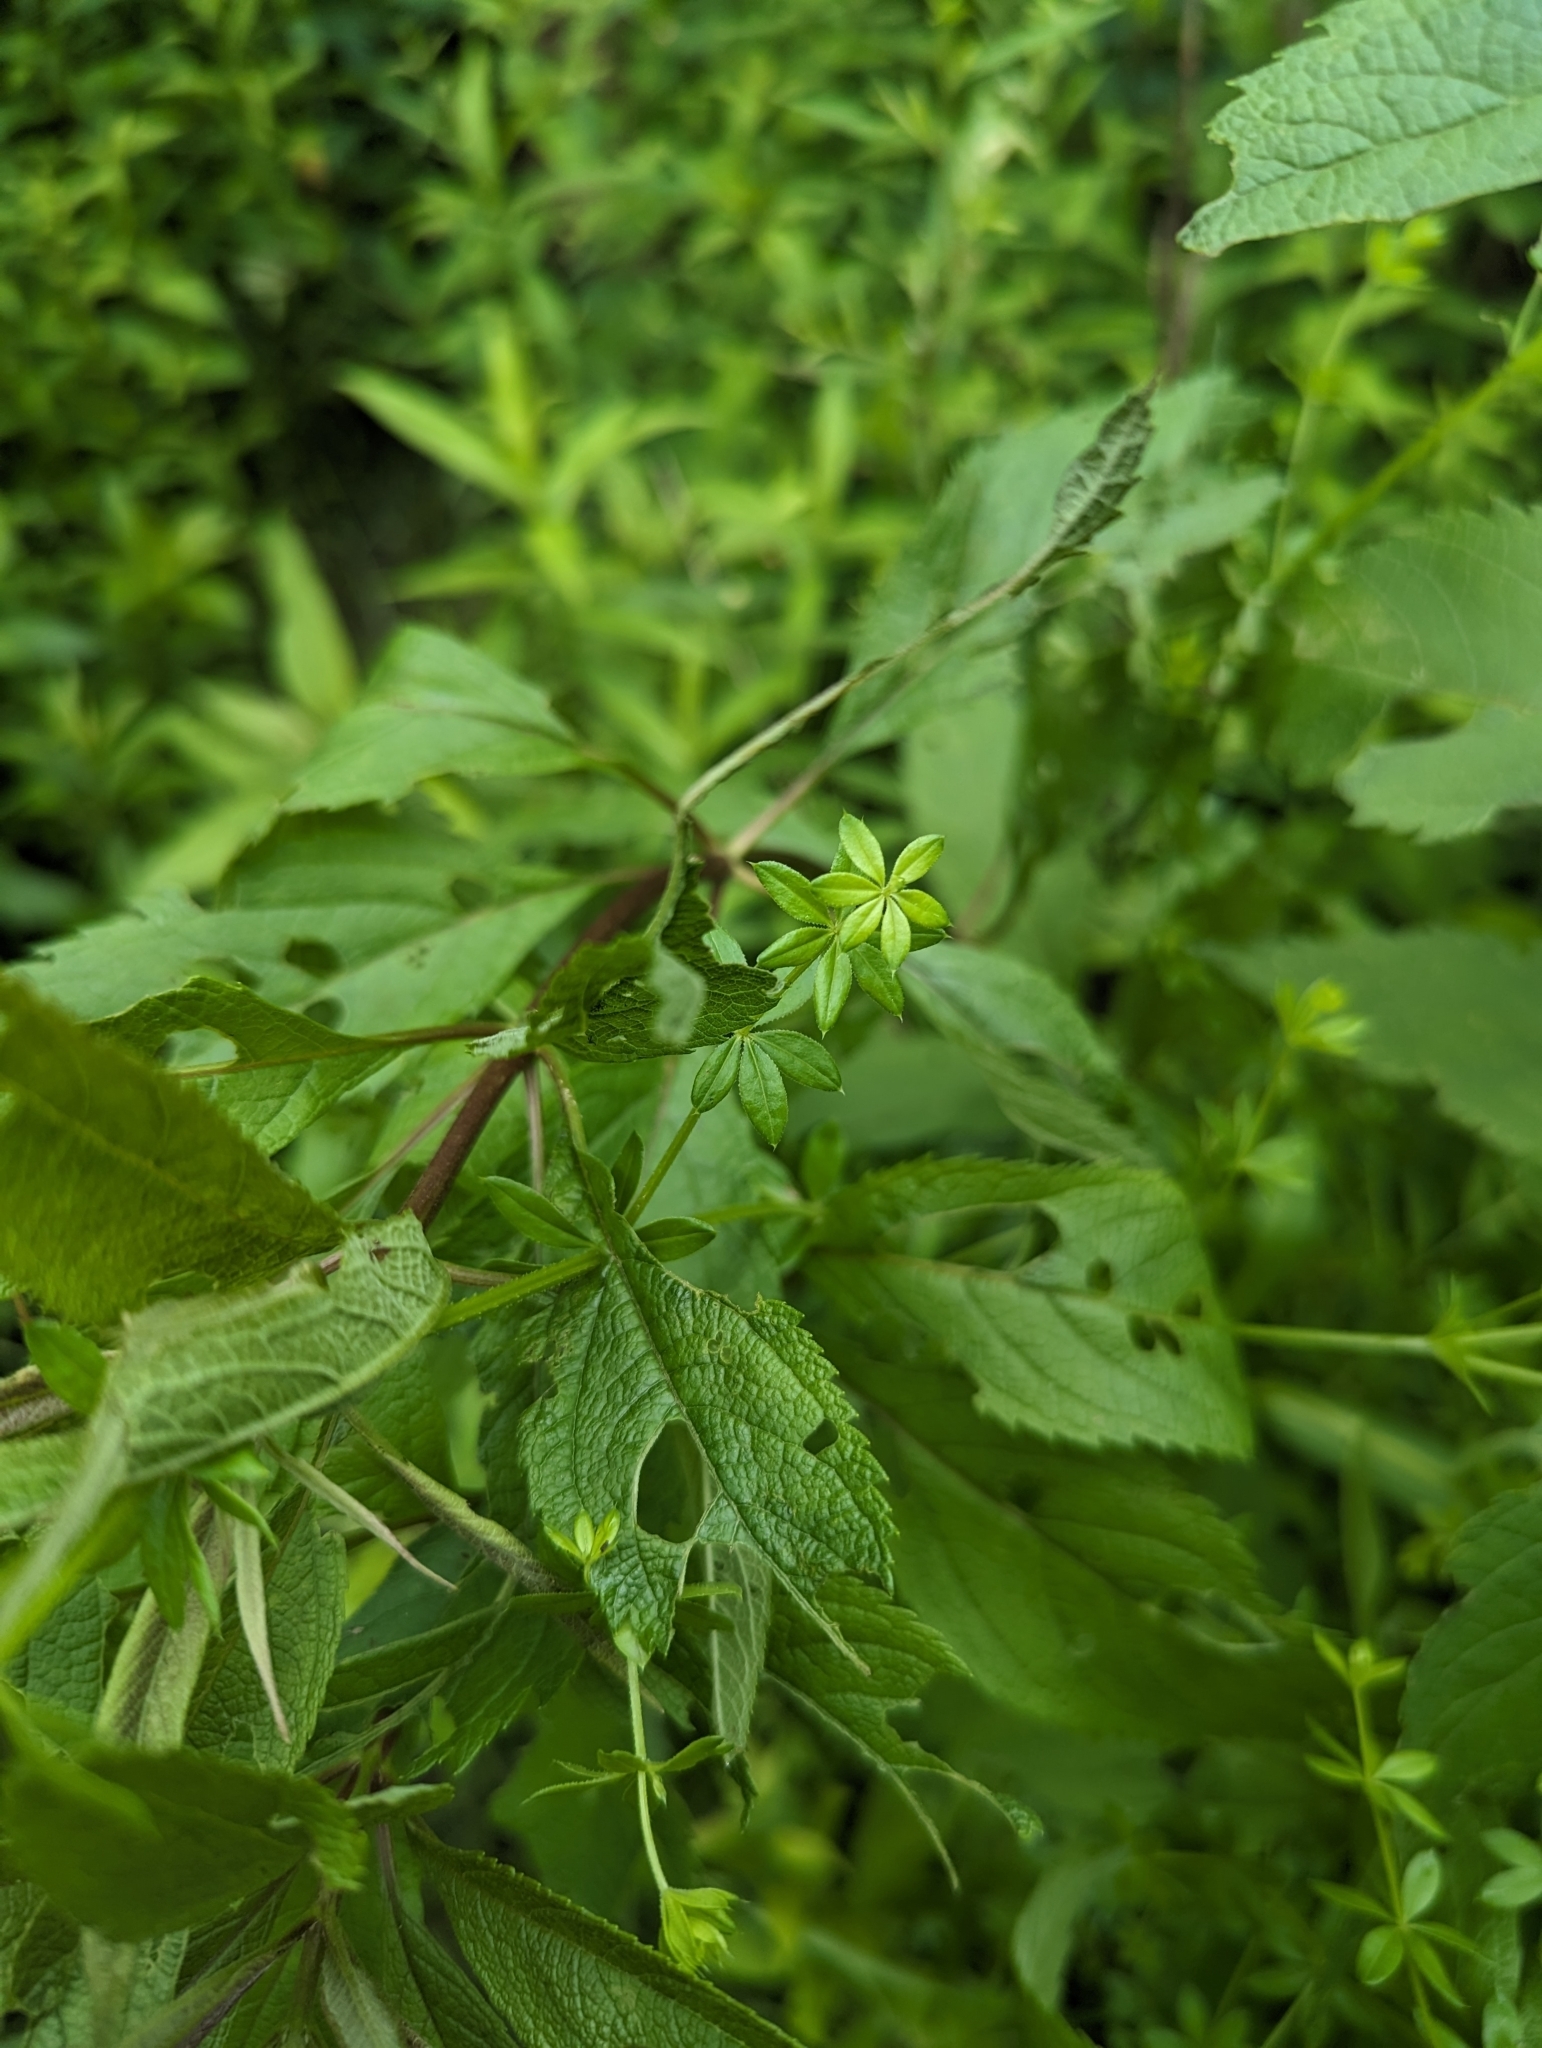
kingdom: Plantae
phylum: Tracheophyta
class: Magnoliopsida
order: Gentianales
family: Rubiaceae
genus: Galium
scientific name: Galium asprellum
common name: Rough bedstraw
